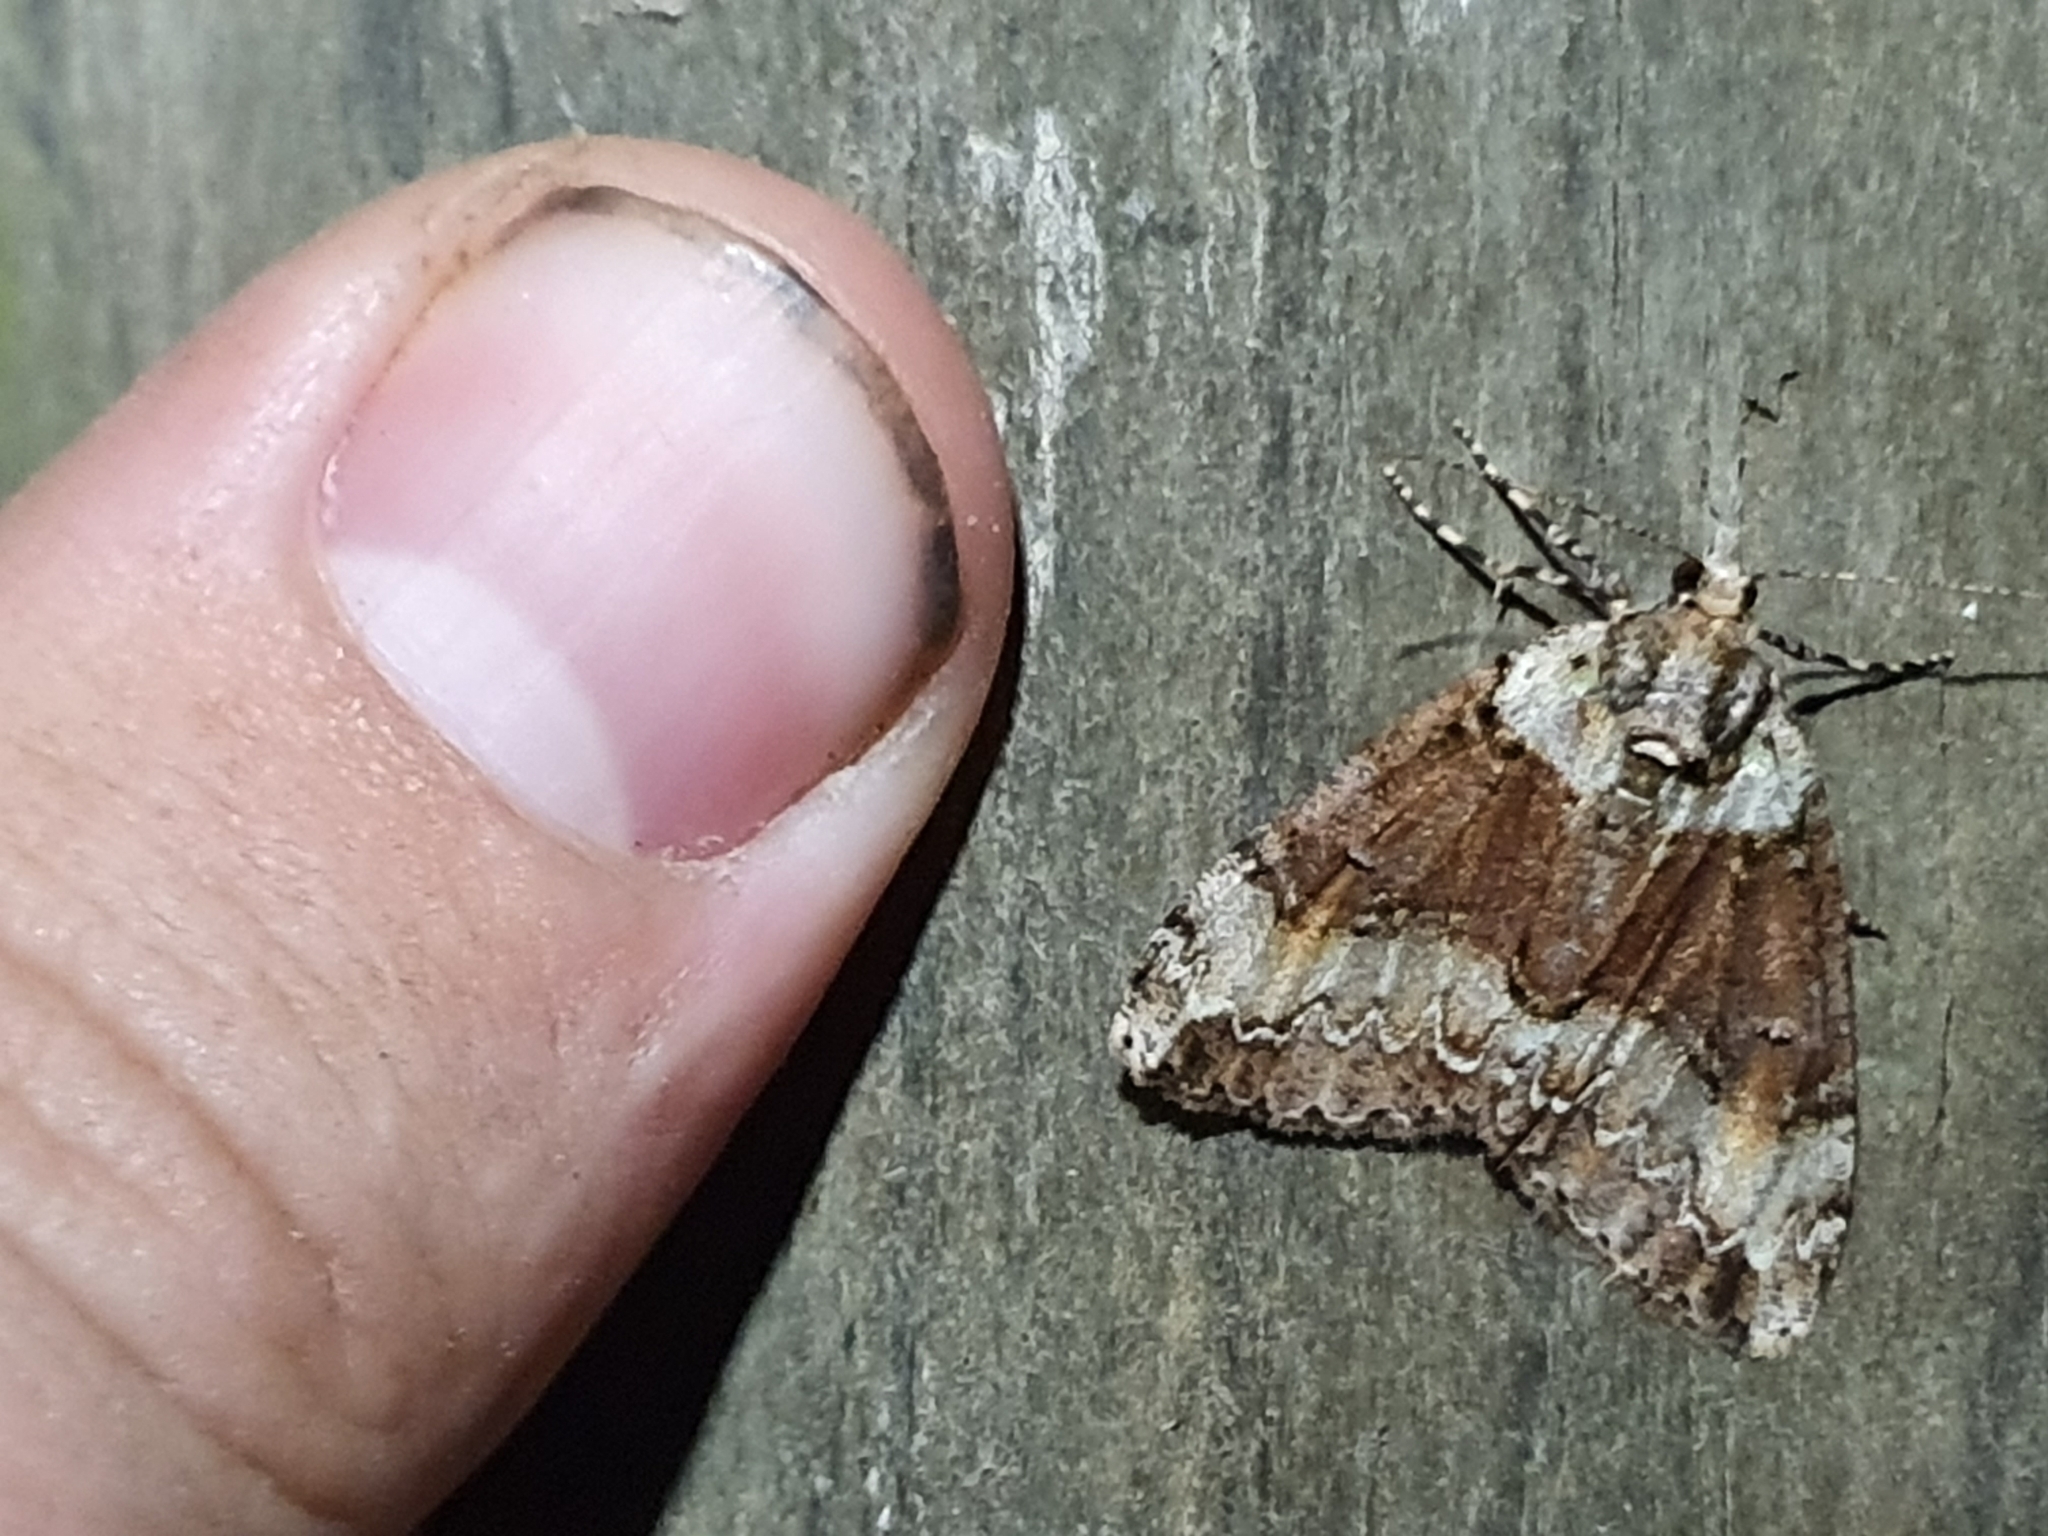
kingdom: Animalia
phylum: Arthropoda
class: Insecta
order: Lepidoptera
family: Geometridae
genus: Pseudocoremia
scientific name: Pseudocoremia suavis
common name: Common forest looper
